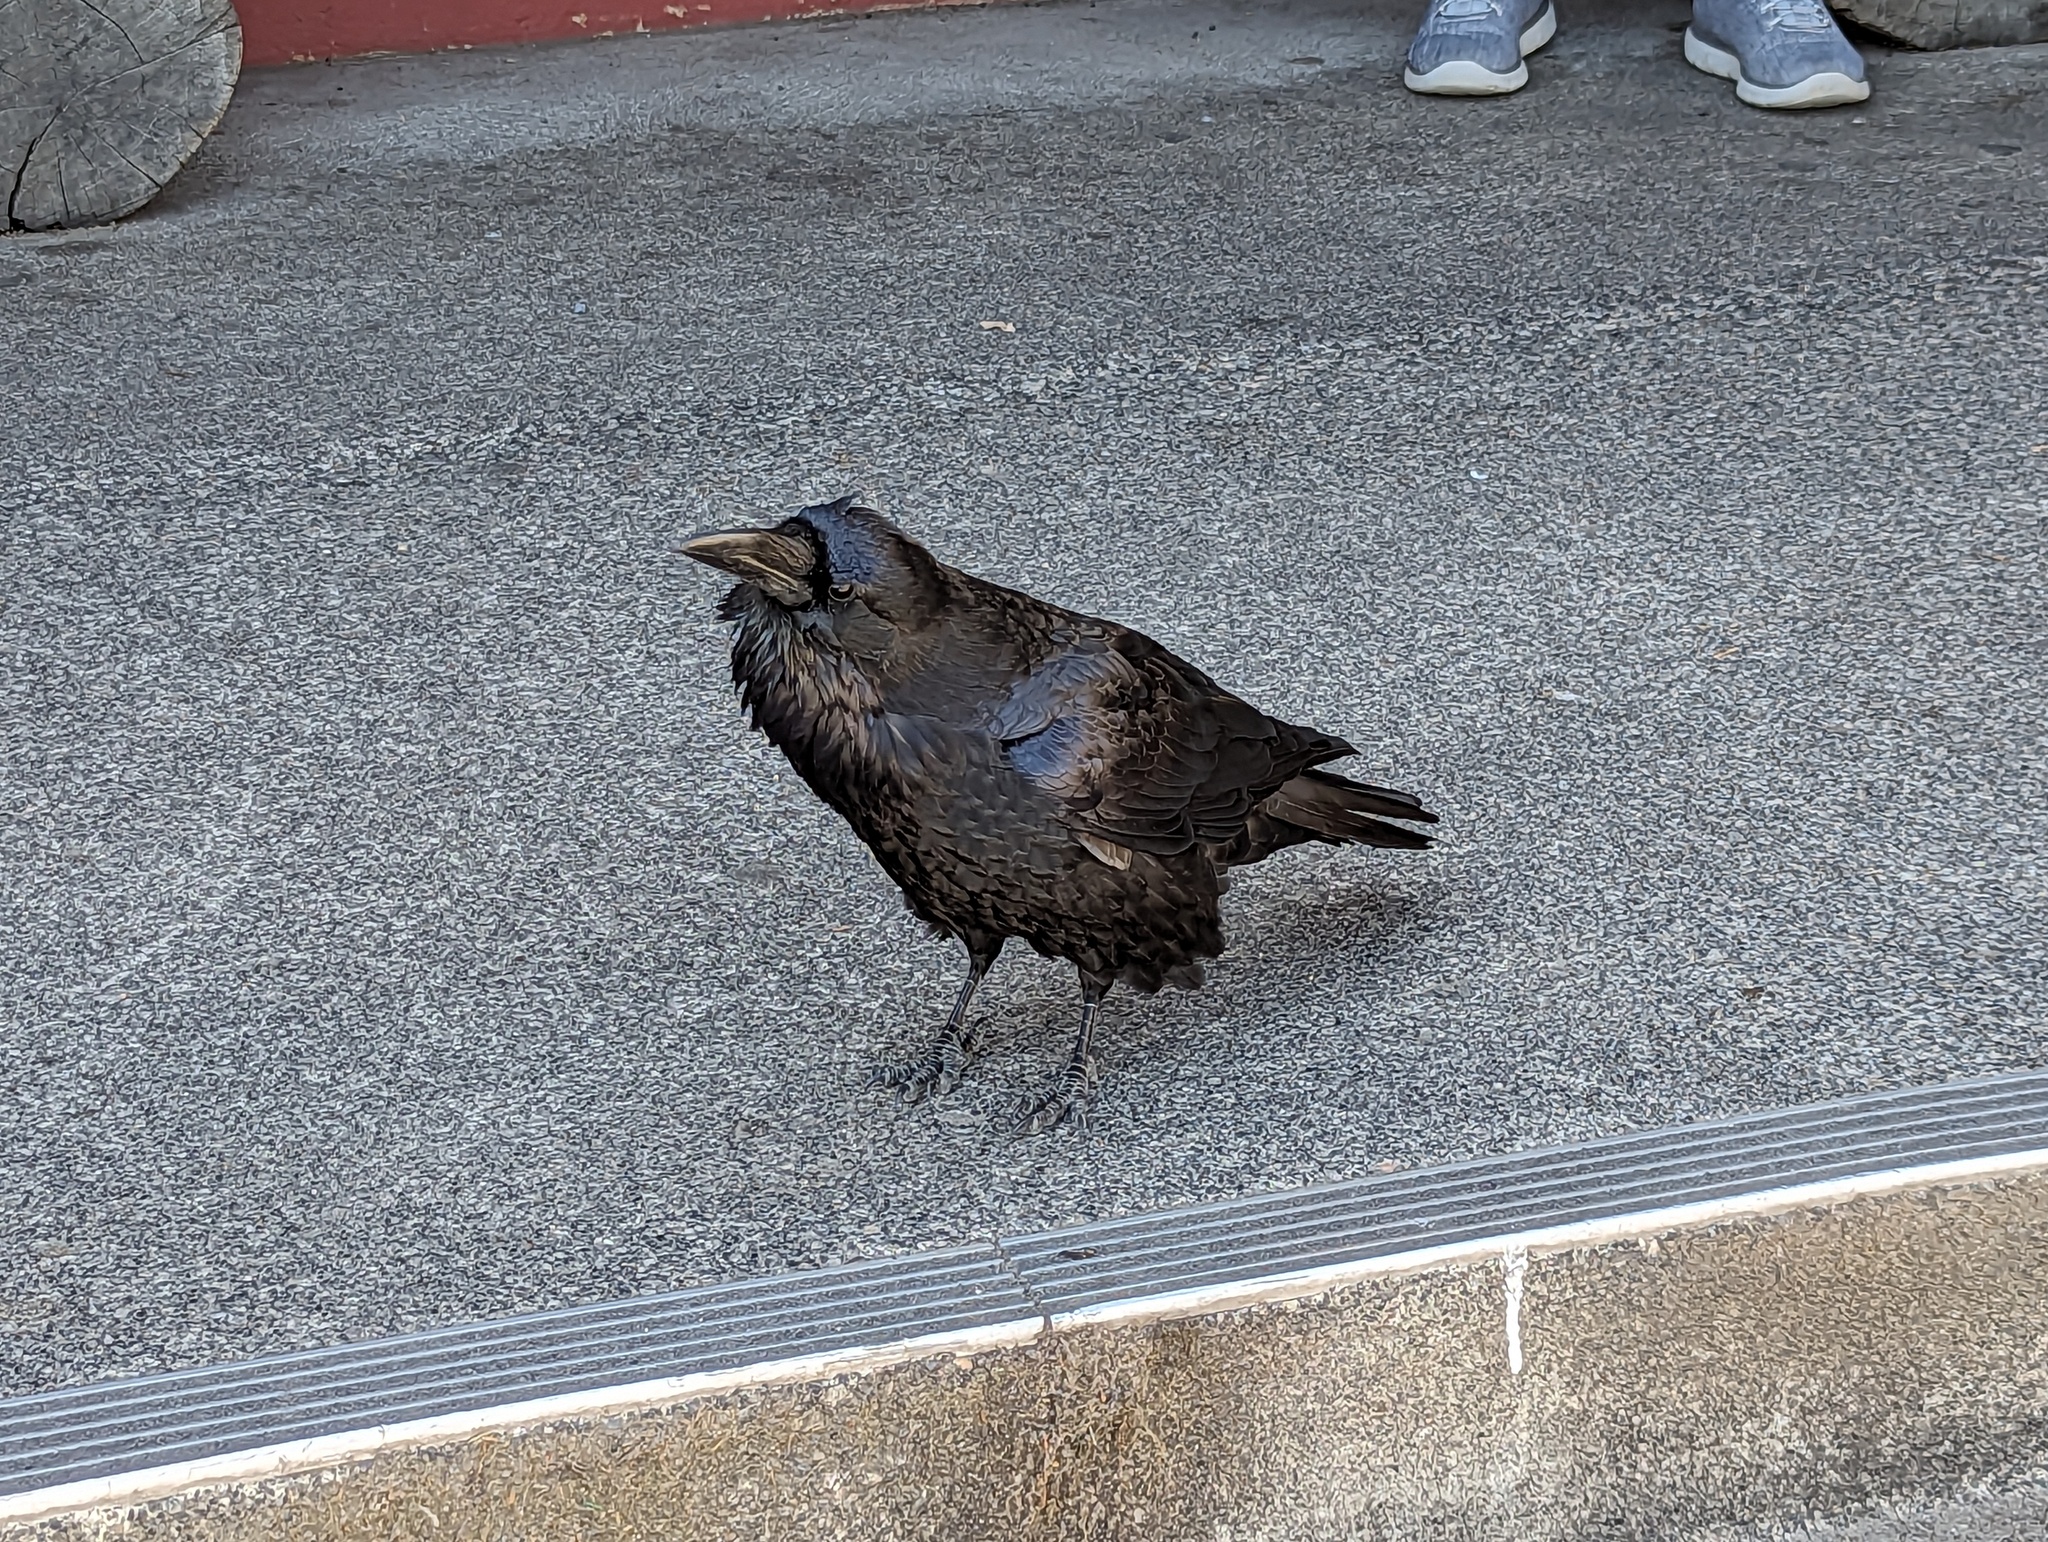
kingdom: Animalia
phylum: Chordata
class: Aves
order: Passeriformes
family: Corvidae
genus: Corvus
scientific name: Corvus corax
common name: Common raven
